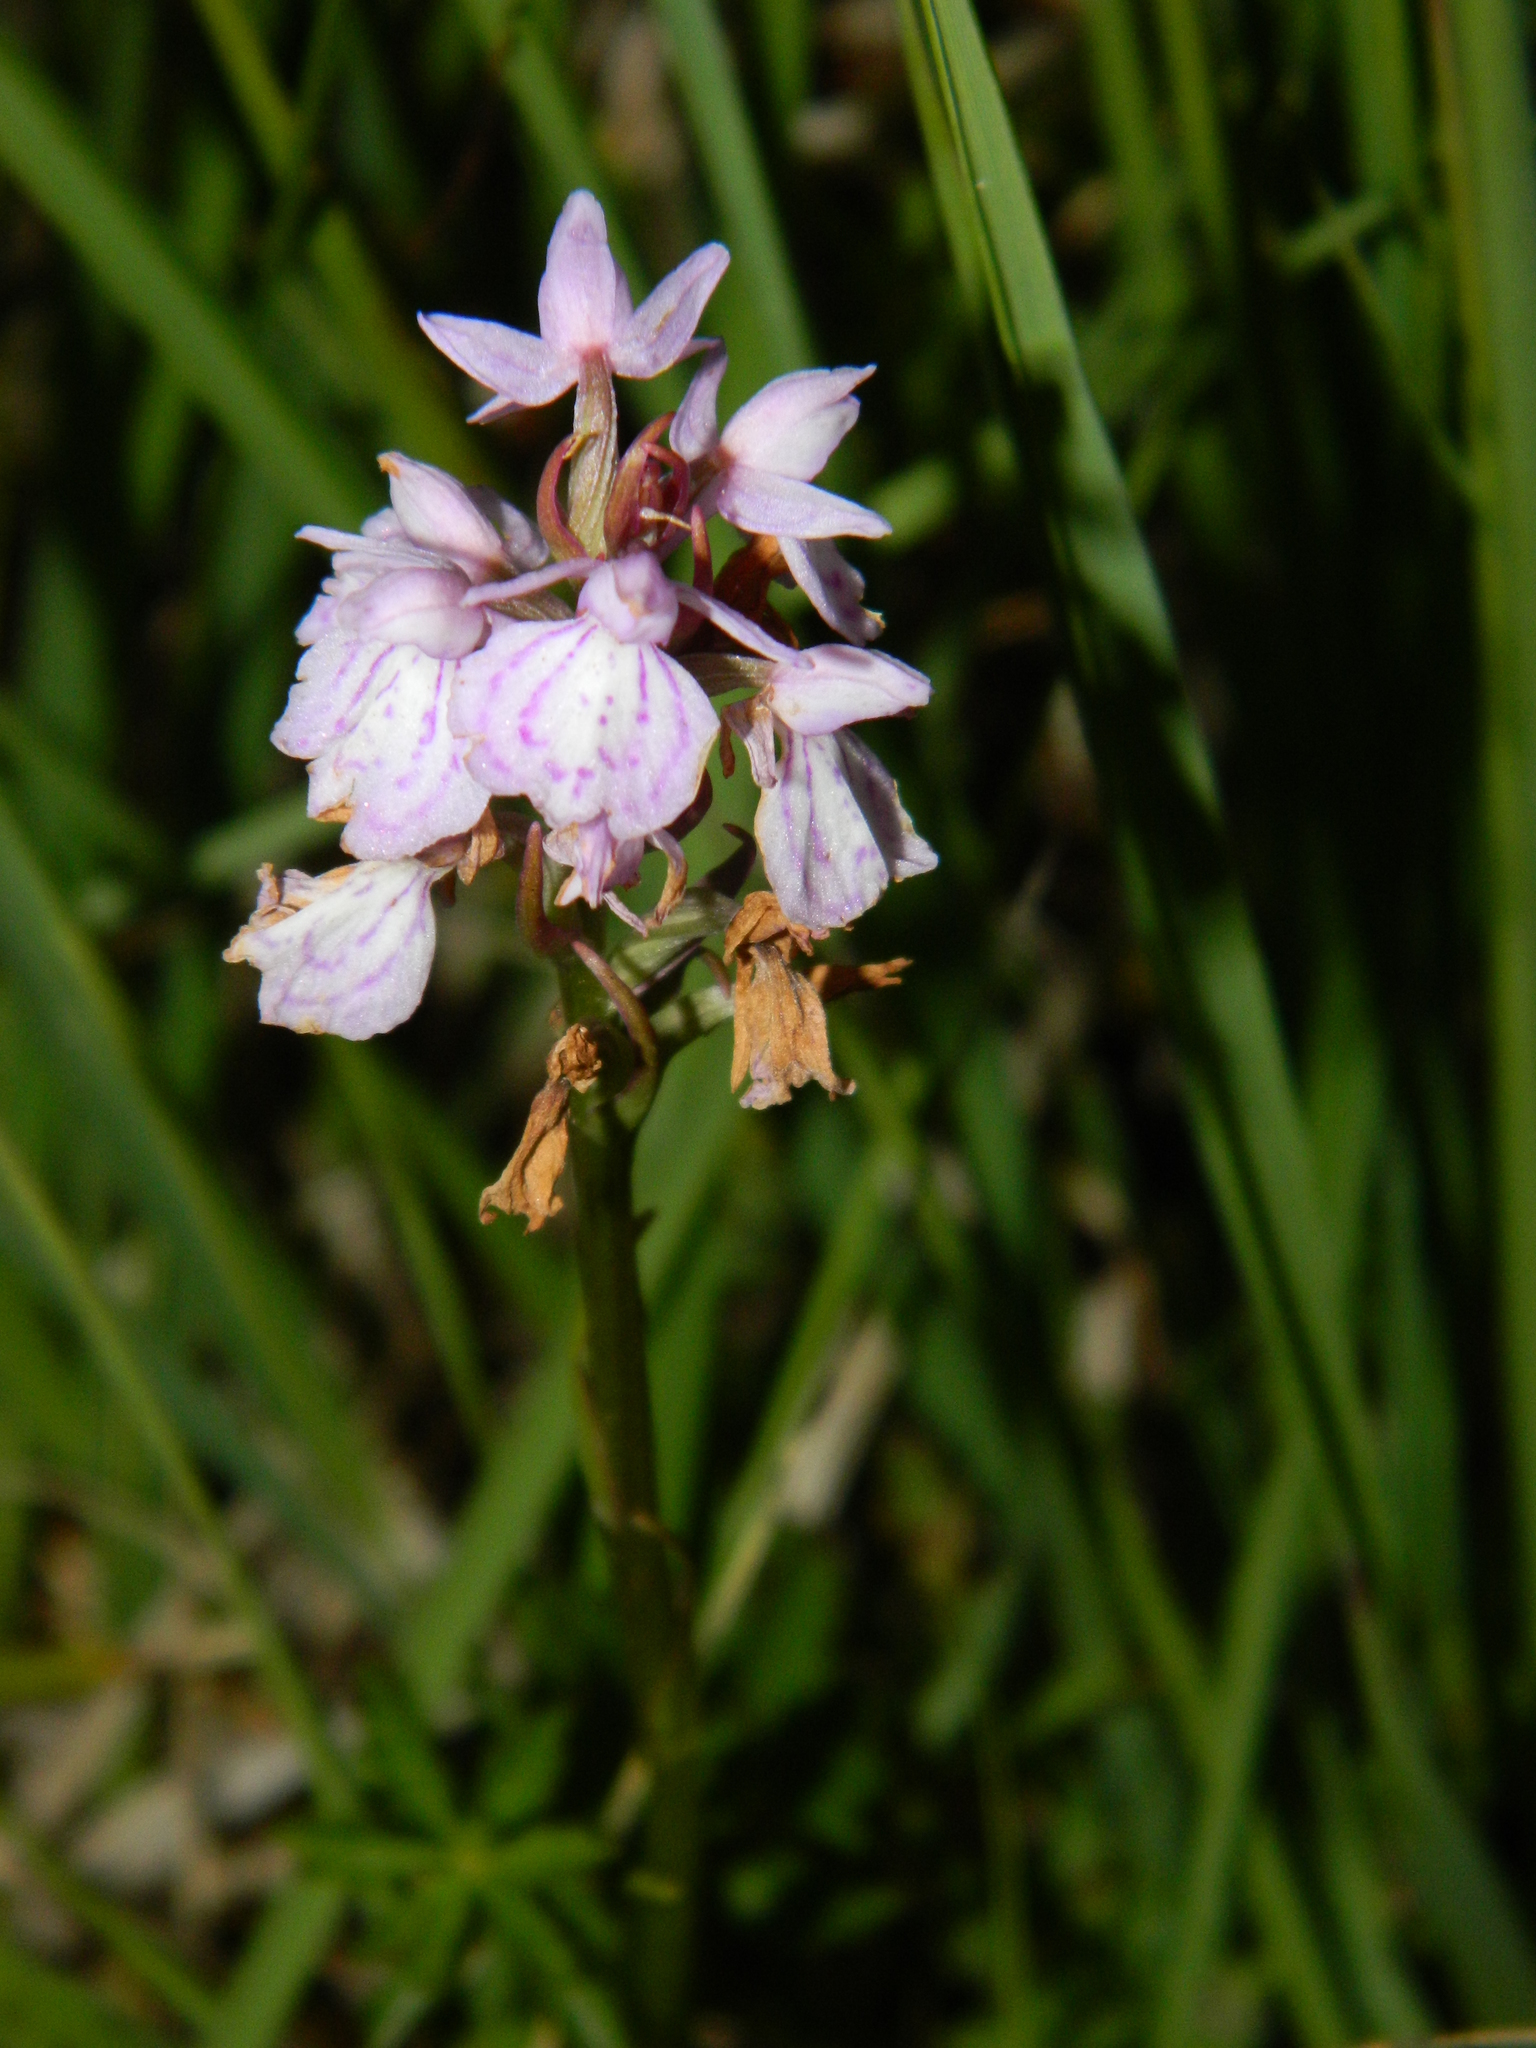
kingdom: Plantae
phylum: Tracheophyta
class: Liliopsida
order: Asparagales
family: Orchidaceae
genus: Dactylorhiza
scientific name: Dactylorhiza maculata
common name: Heath spotted-orchid
